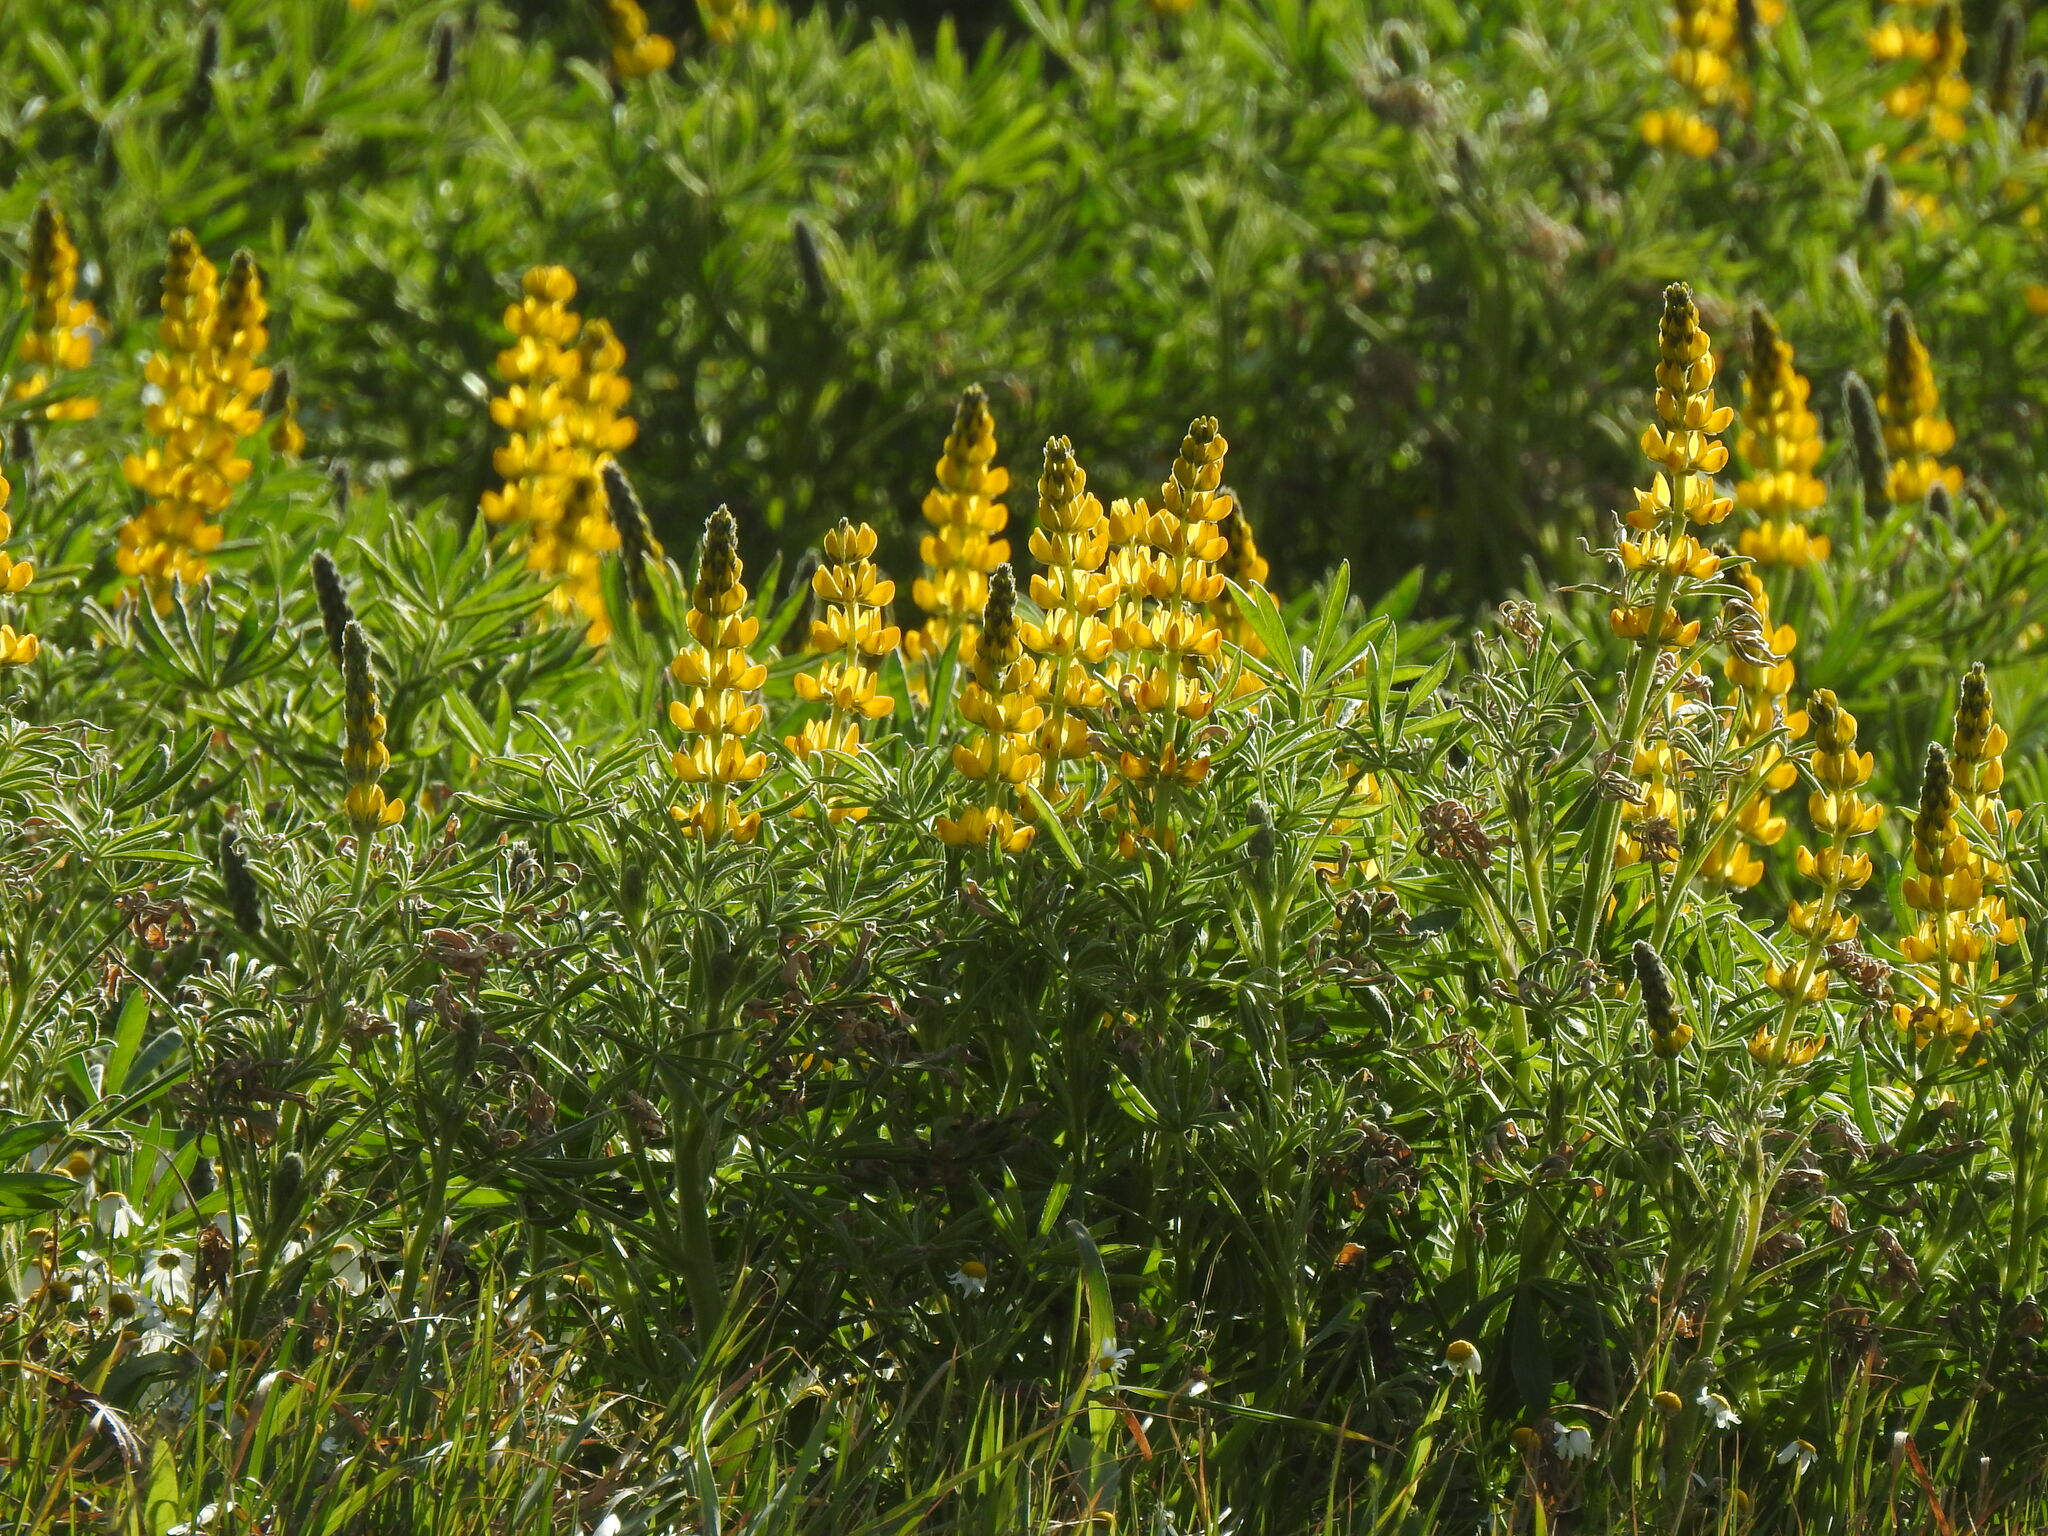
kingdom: Plantae
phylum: Tracheophyta
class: Magnoliopsida
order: Fabales
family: Fabaceae
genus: Lupinus
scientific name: Lupinus luteus
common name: European yellow lupine
